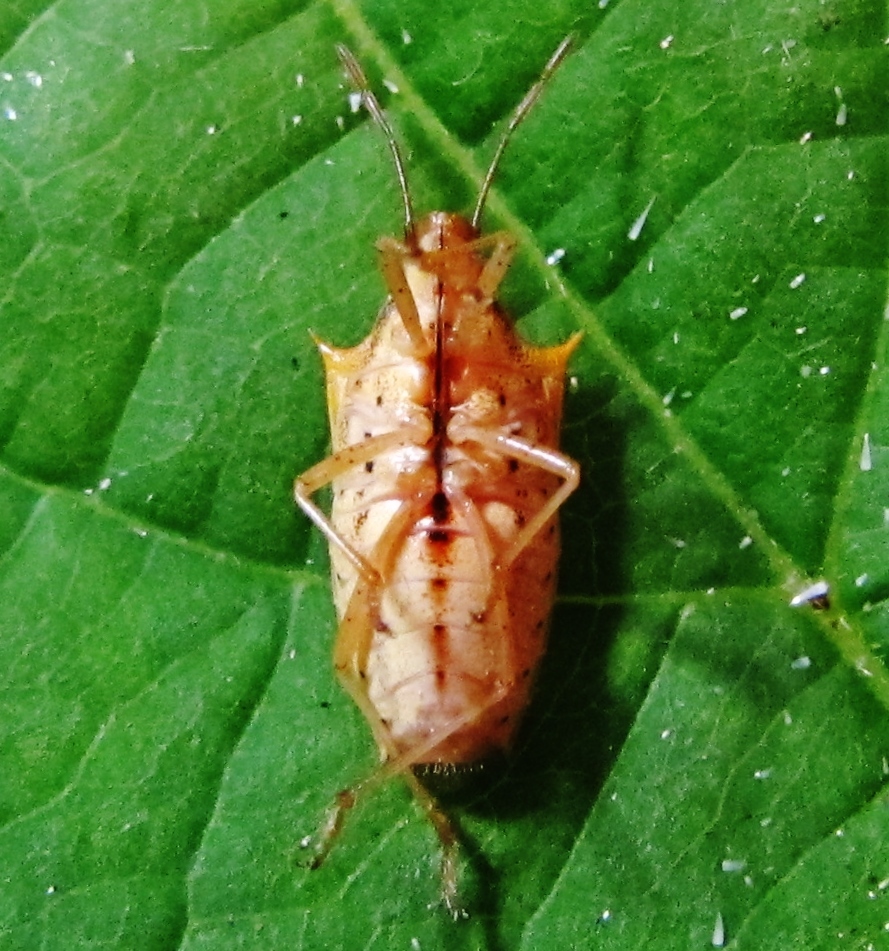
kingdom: Animalia
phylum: Arthropoda
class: Insecta
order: Hemiptera
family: Pentatomidae
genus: Oebalus
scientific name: Oebalus pugnax
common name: Rice stink bug
